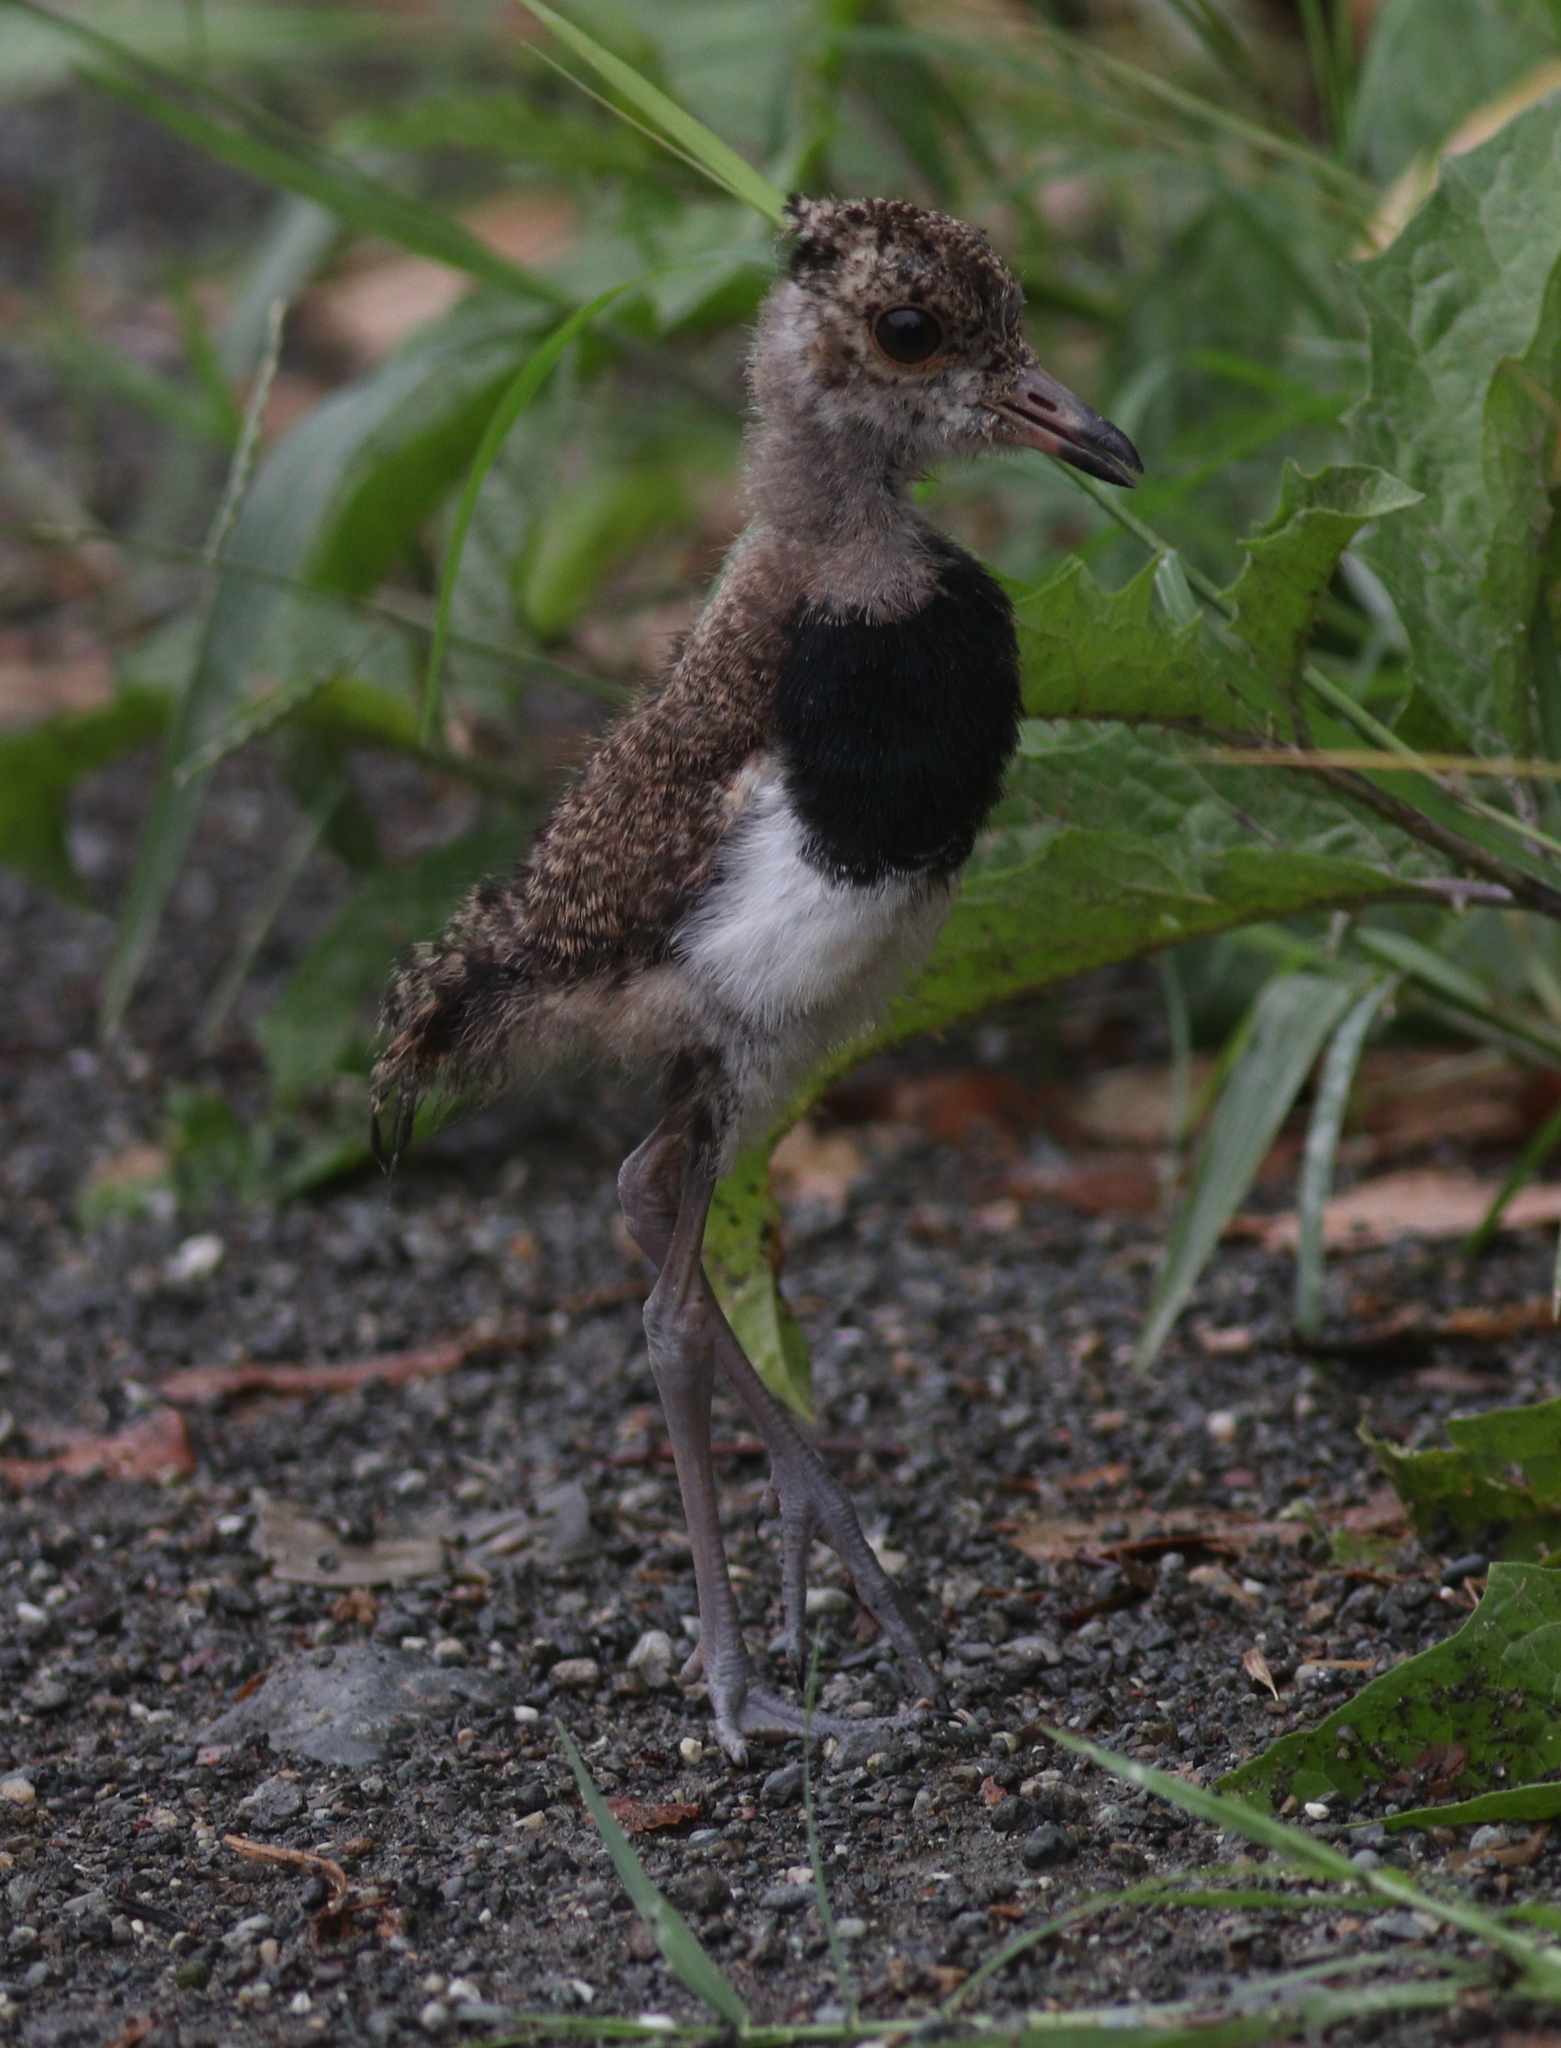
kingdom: Animalia
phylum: Chordata
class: Aves
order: Charadriiformes
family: Charadriidae
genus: Vanellus
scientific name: Vanellus chilensis
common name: Southern lapwing
